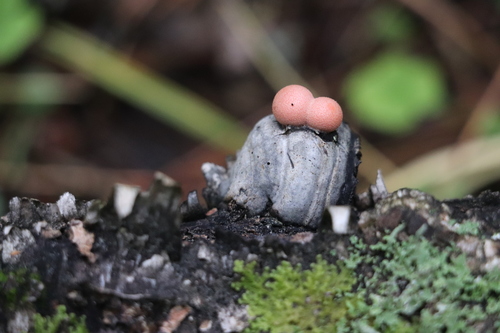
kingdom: Protozoa
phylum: Mycetozoa
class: Myxomycetes
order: Cribrariales
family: Tubiferaceae
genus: Lycogala
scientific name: Lycogala epidendrum
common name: Wolf's milk
